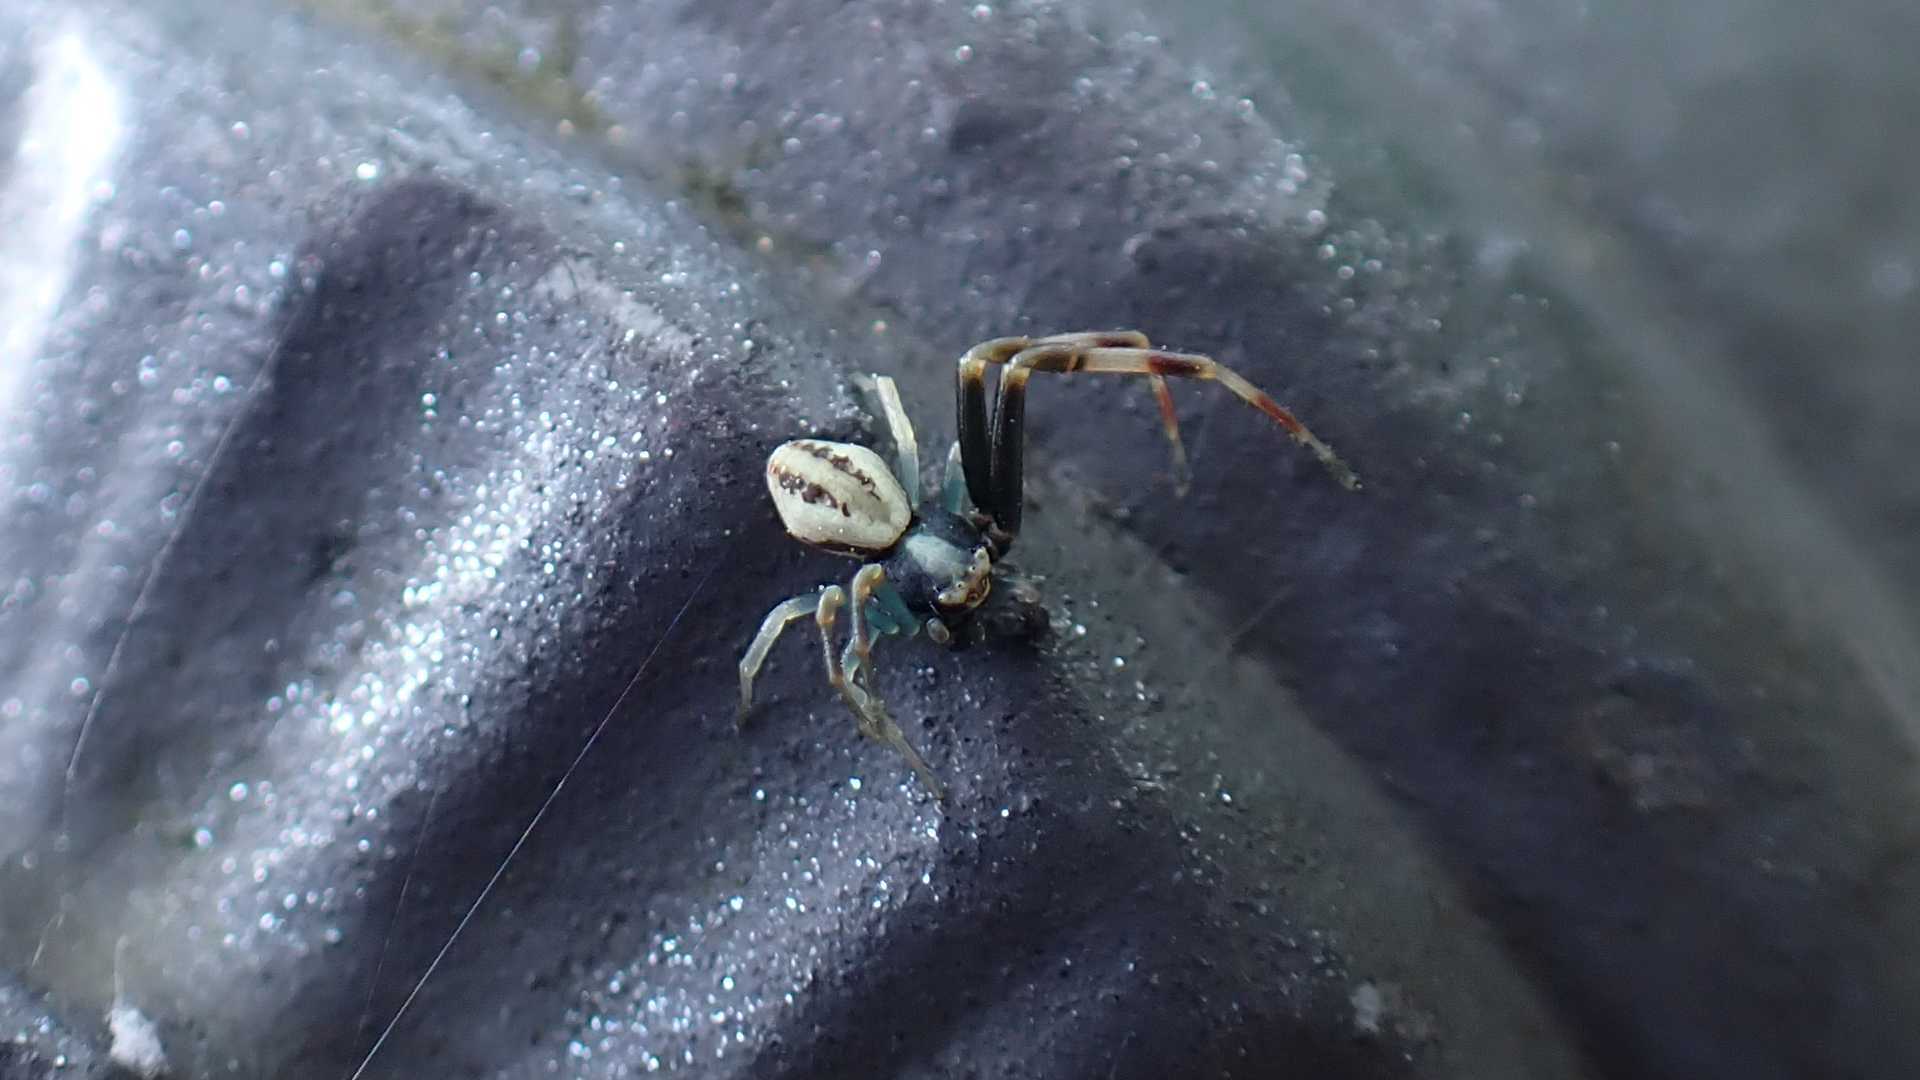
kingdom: Animalia
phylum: Arthropoda
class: Arachnida
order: Araneae
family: Thomisidae
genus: Misumena
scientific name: Misumena vatia
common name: Goldenrod crab spider
